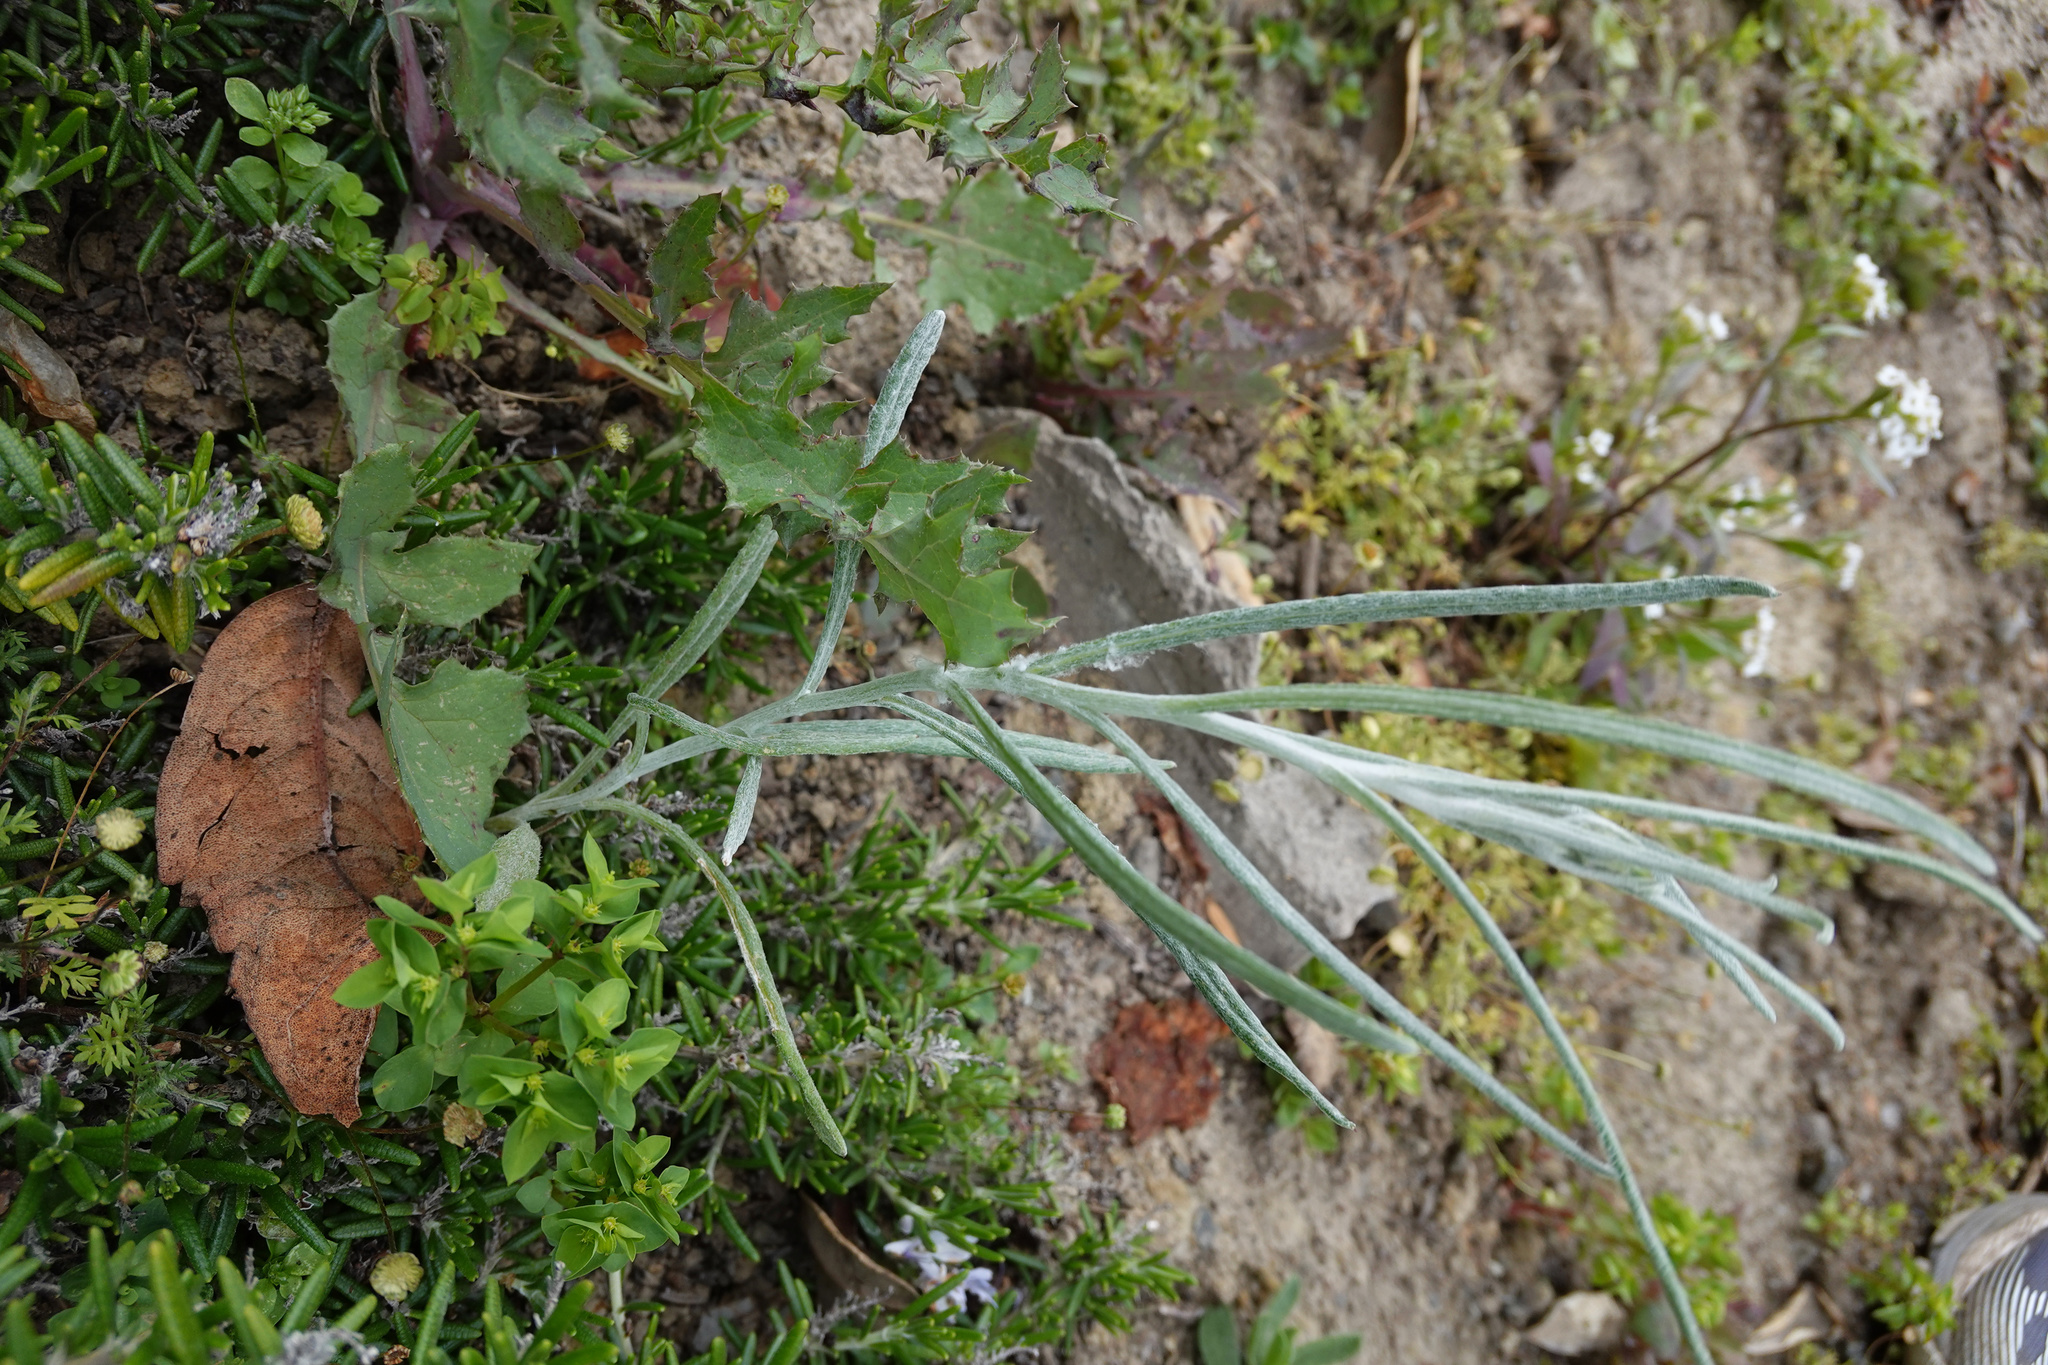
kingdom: Plantae
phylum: Tracheophyta
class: Magnoliopsida
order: Asterales
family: Asteraceae
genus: Senecio
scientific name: Senecio quadridentatus
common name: Cotton fireweed
